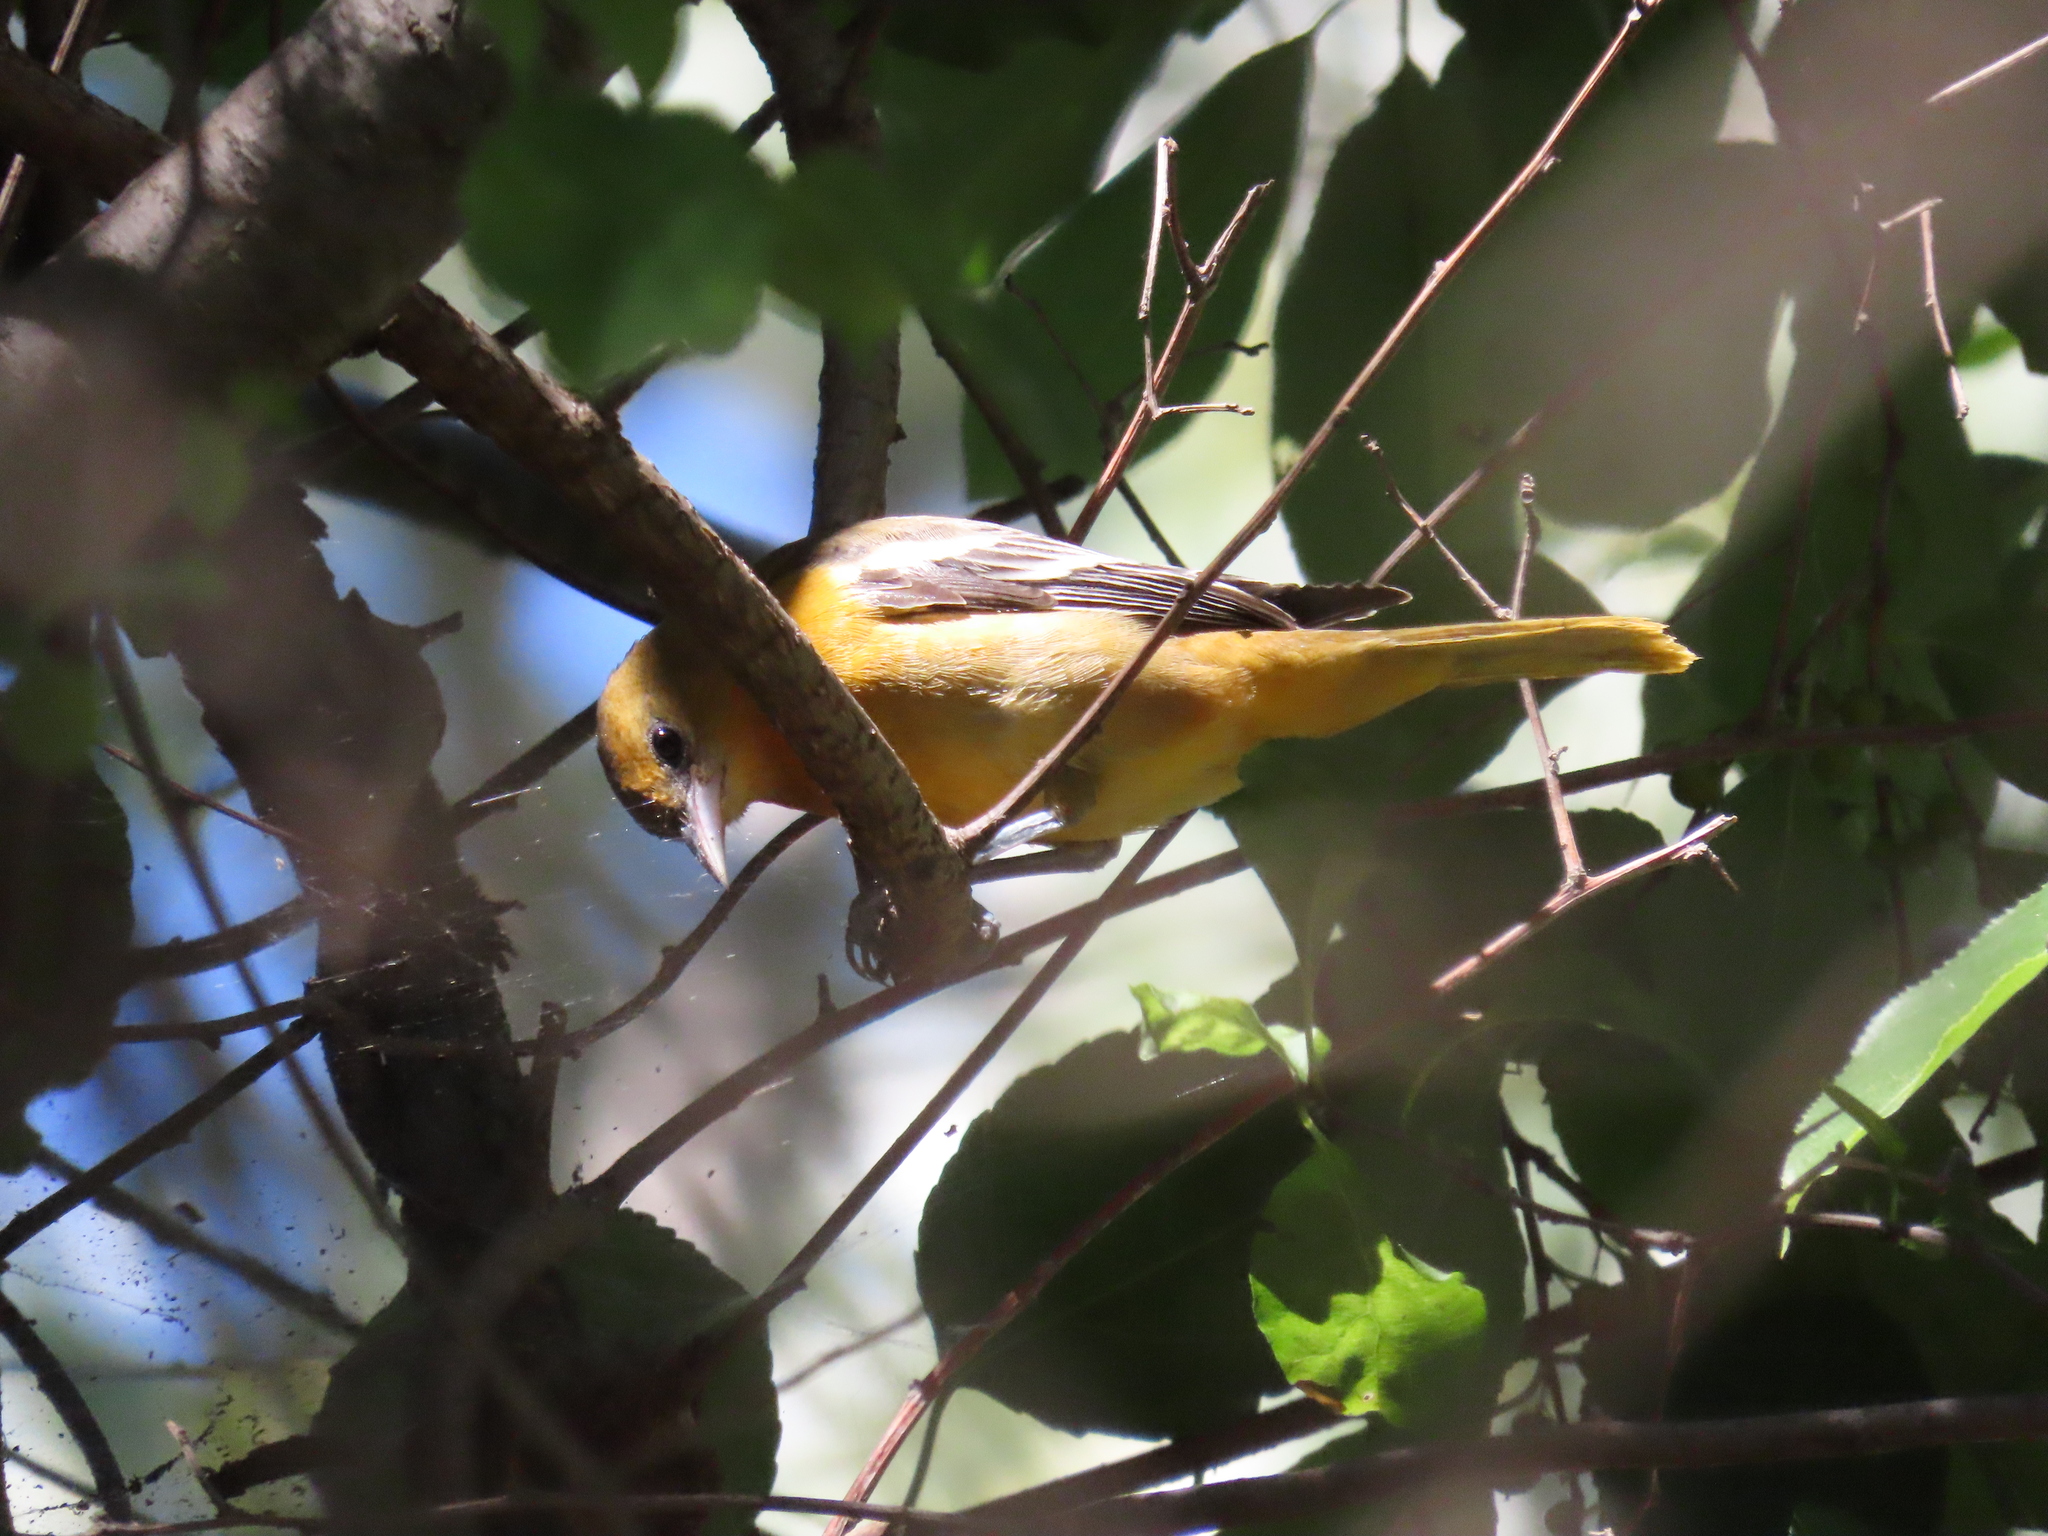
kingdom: Animalia
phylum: Chordata
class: Aves
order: Passeriformes
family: Icteridae
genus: Icterus
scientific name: Icterus galbula
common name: Baltimore oriole
